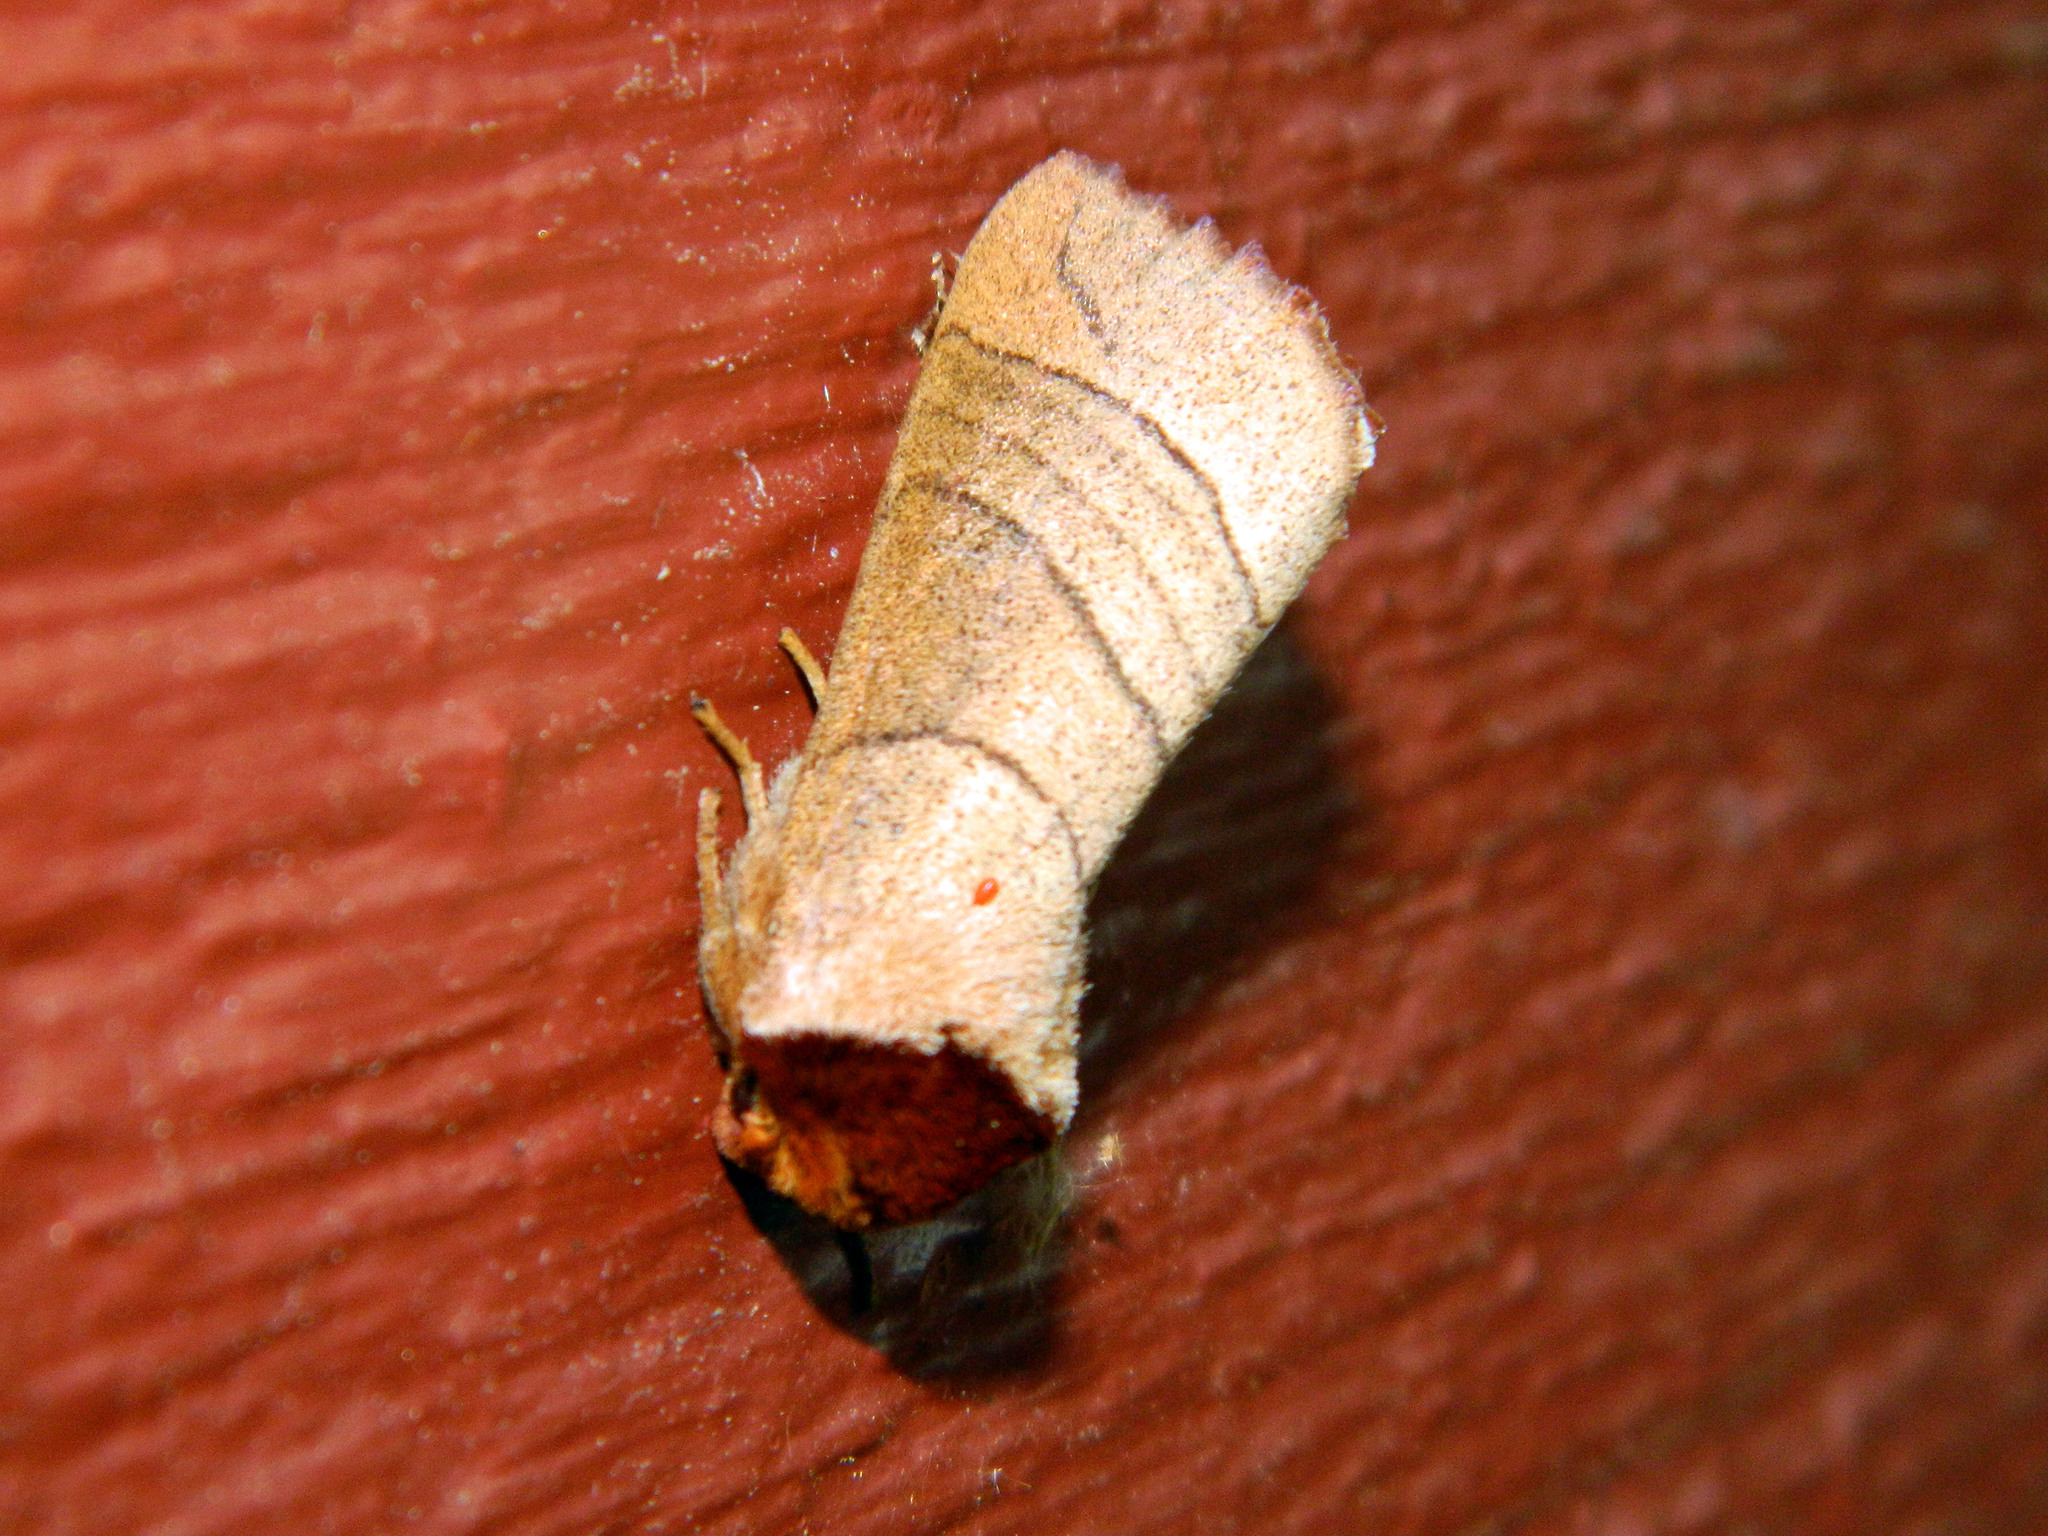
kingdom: Animalia
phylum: Arthropoda
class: Insecta
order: Lepidoptera
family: Notodontidae
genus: Datana
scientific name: Datana ministra
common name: Yellow-necked caterpillar moth
